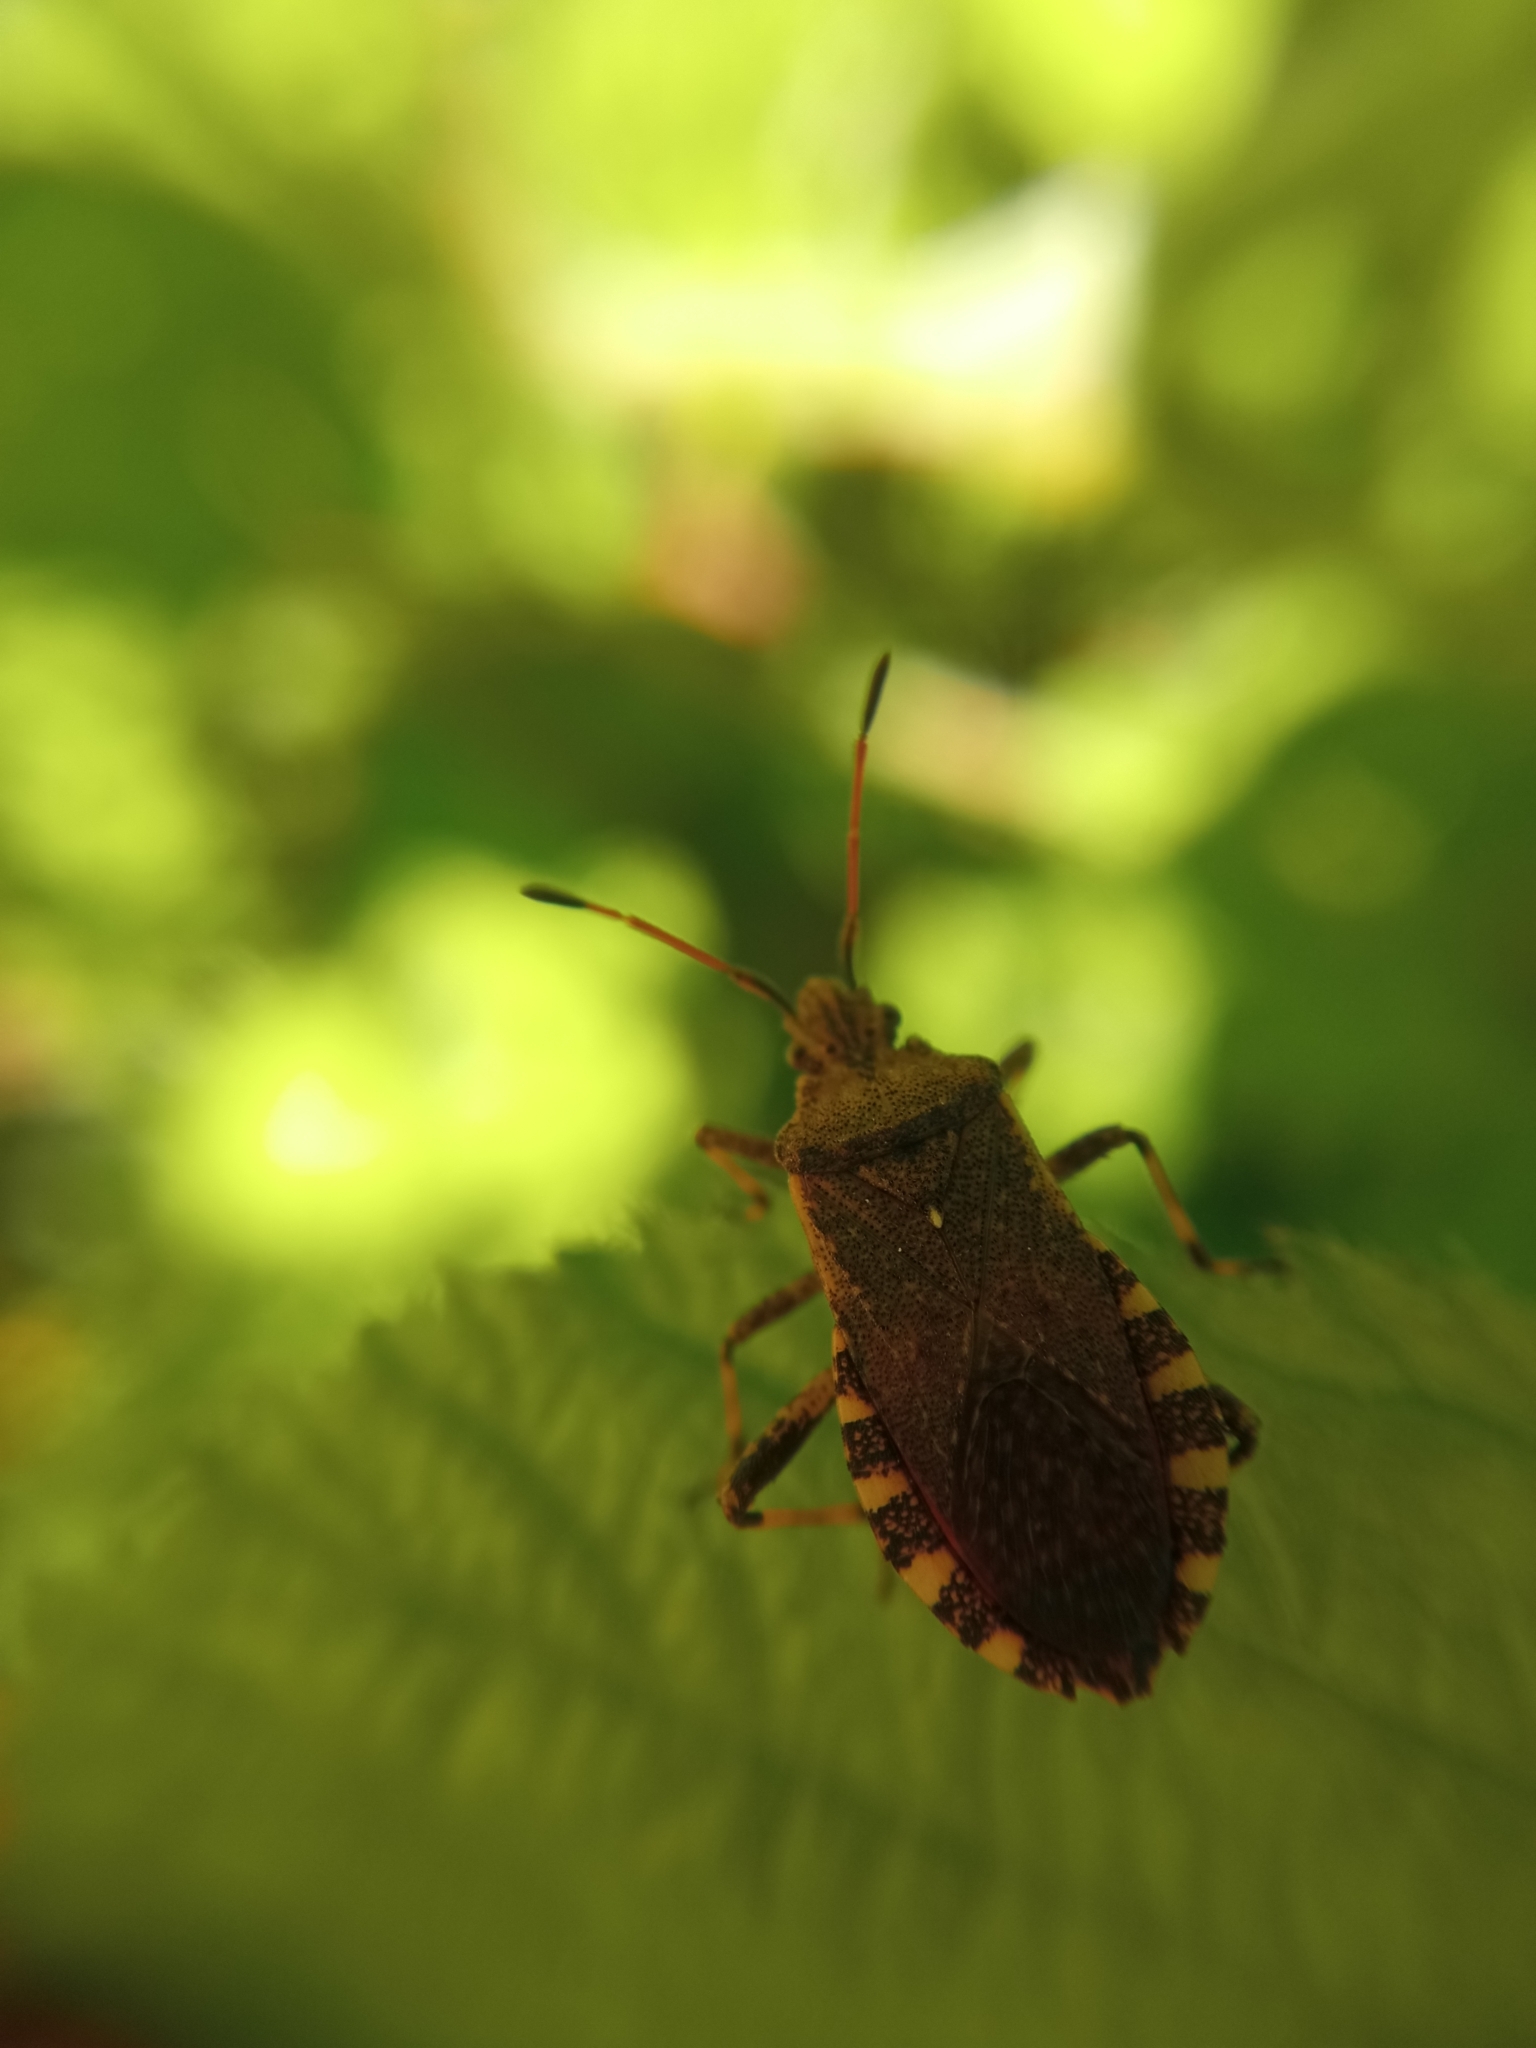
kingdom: Animalia
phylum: Arthropoda
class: Insecta
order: Hemiptera
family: Coreidae
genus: Ceraleptus
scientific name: Ceraleptus gracilicornis
